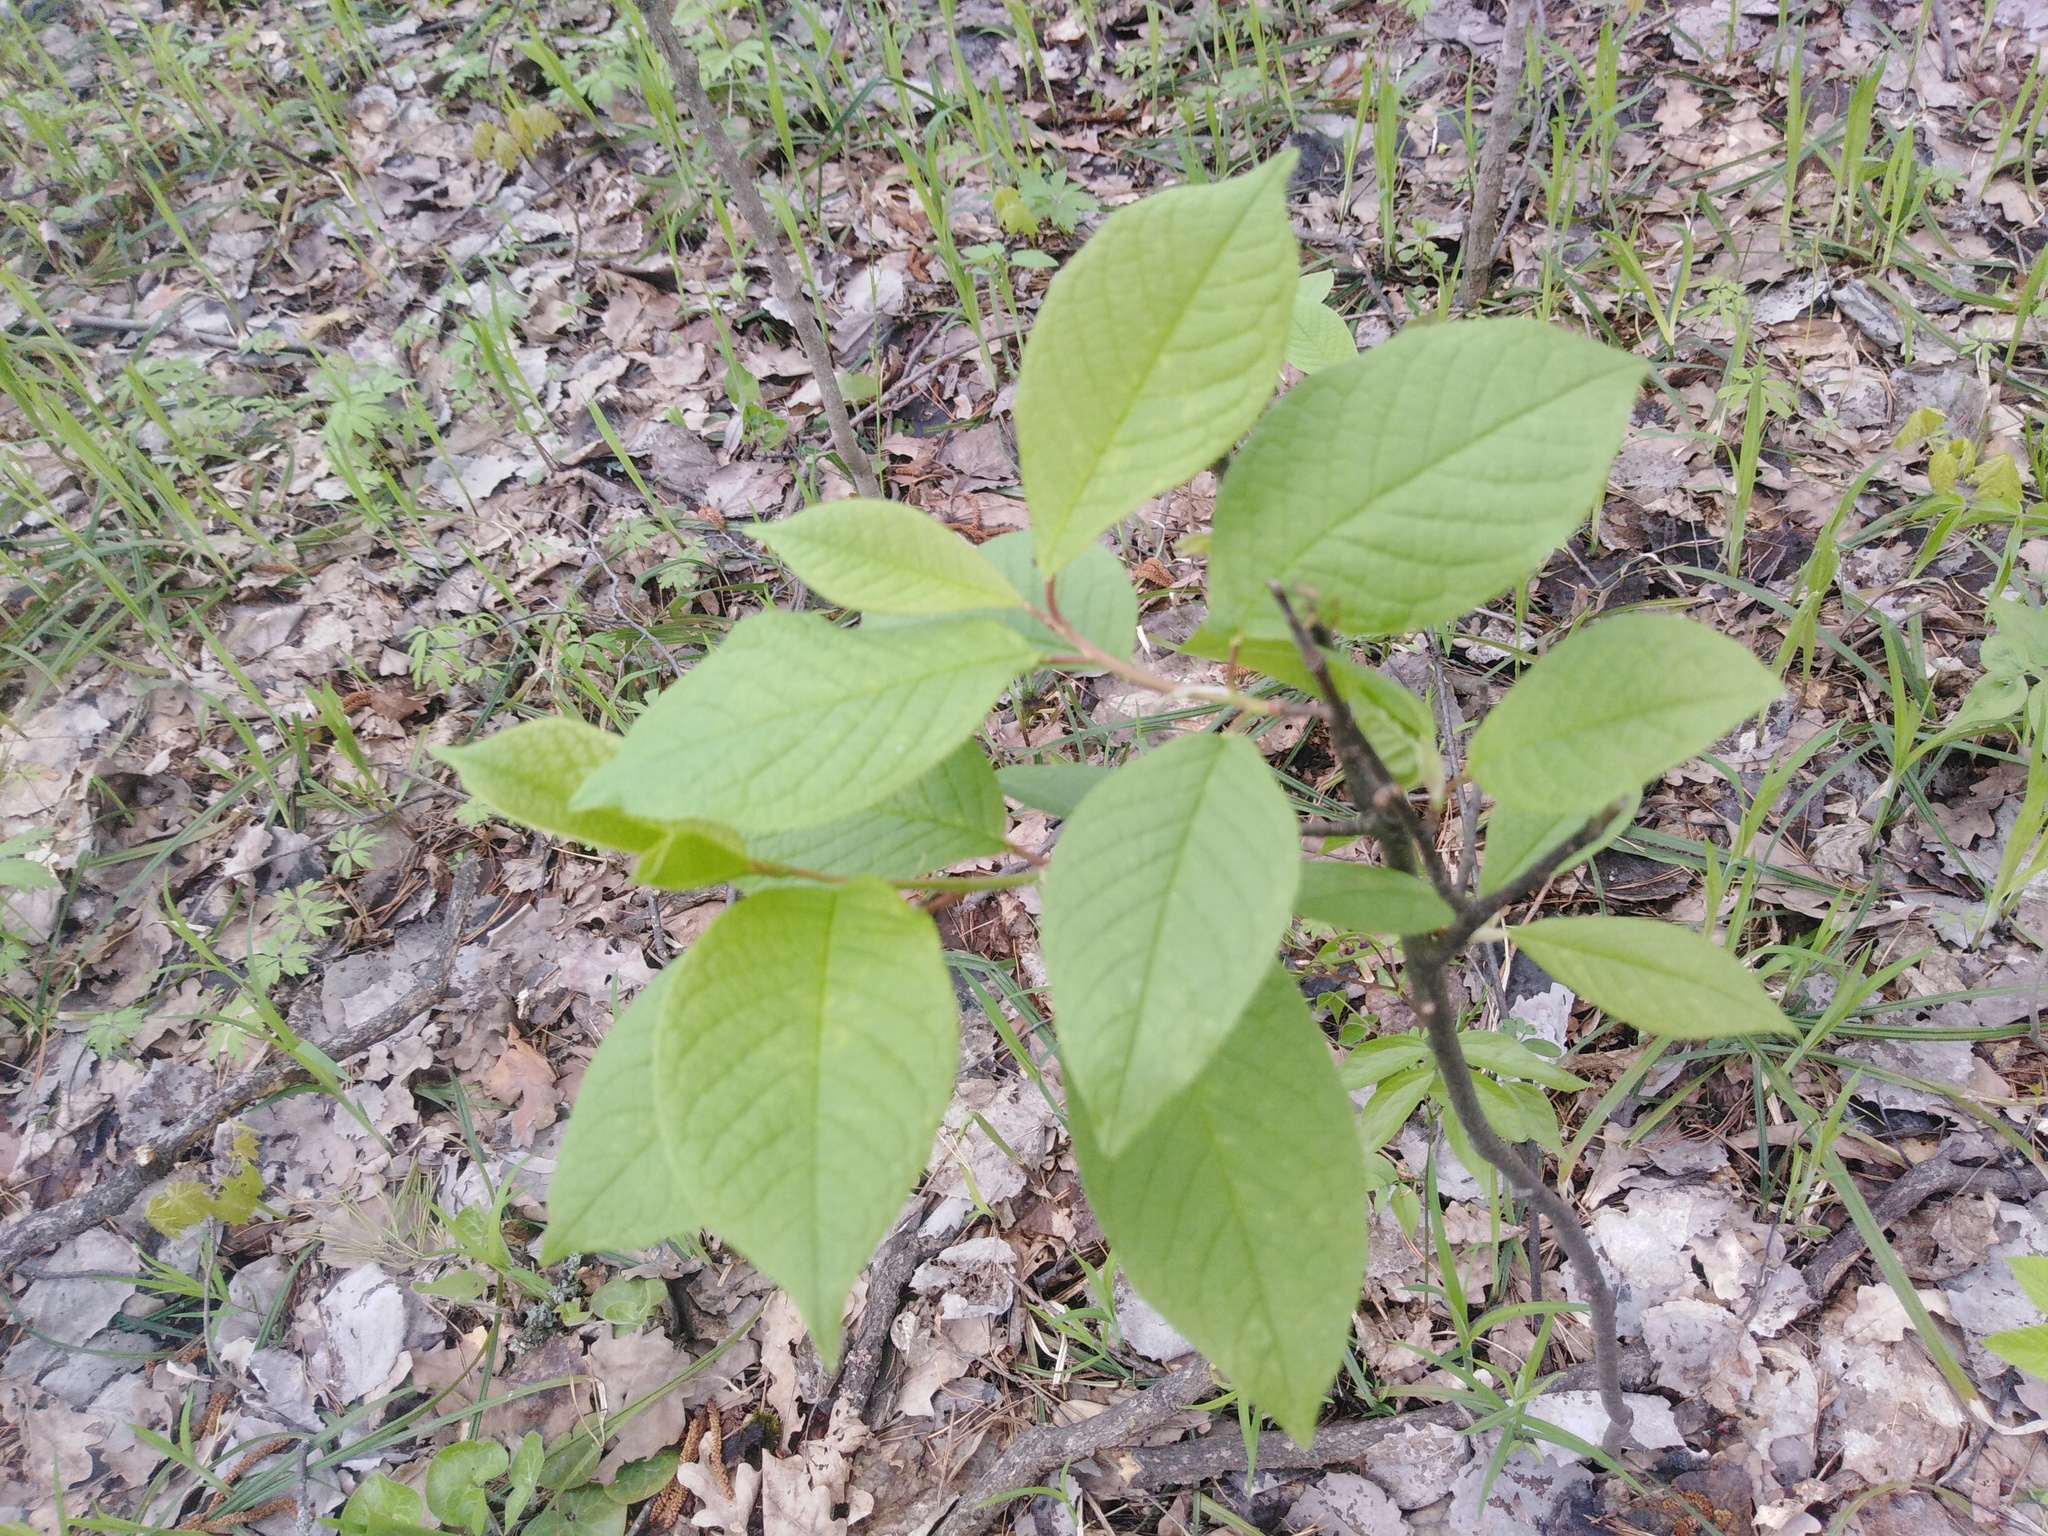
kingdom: Plantae
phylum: Tracheophyta
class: Magnoliopsida
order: Rosales
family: Rosaceae
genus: Prunus
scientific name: Prunus padus
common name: Bird cherry
